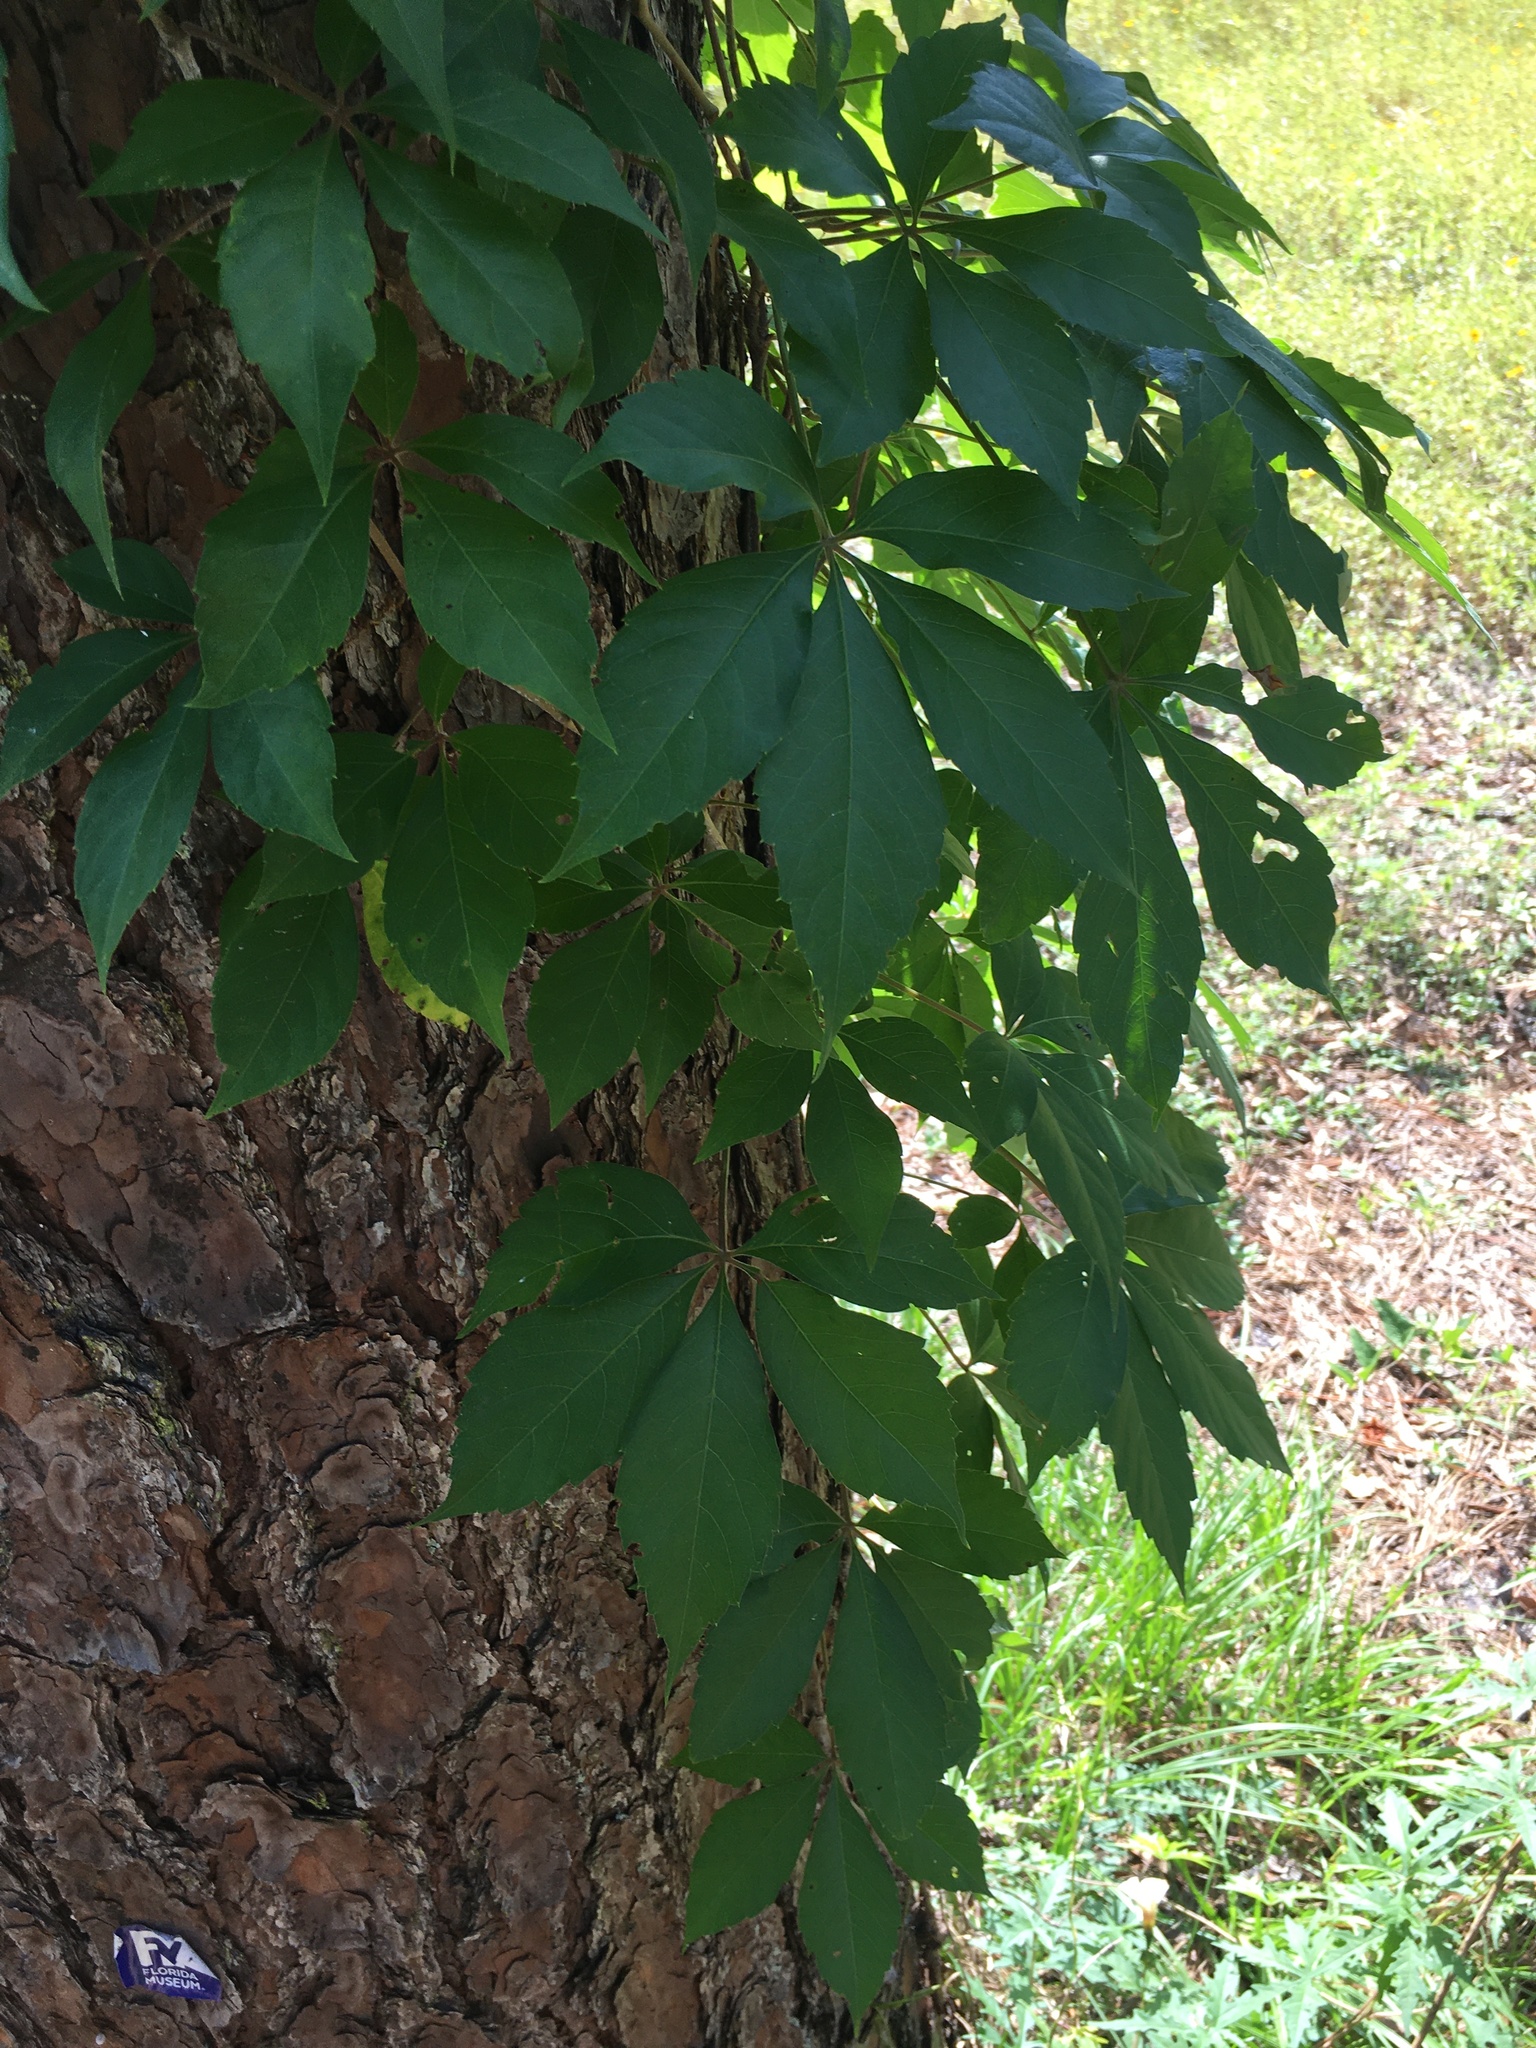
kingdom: Plantae
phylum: Tracheophyta
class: Magnoliopsida
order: Vitales
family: Vitaceae
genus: Parthenocissus
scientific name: Parthenocissus quinquefolia
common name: Virginia-creeper
